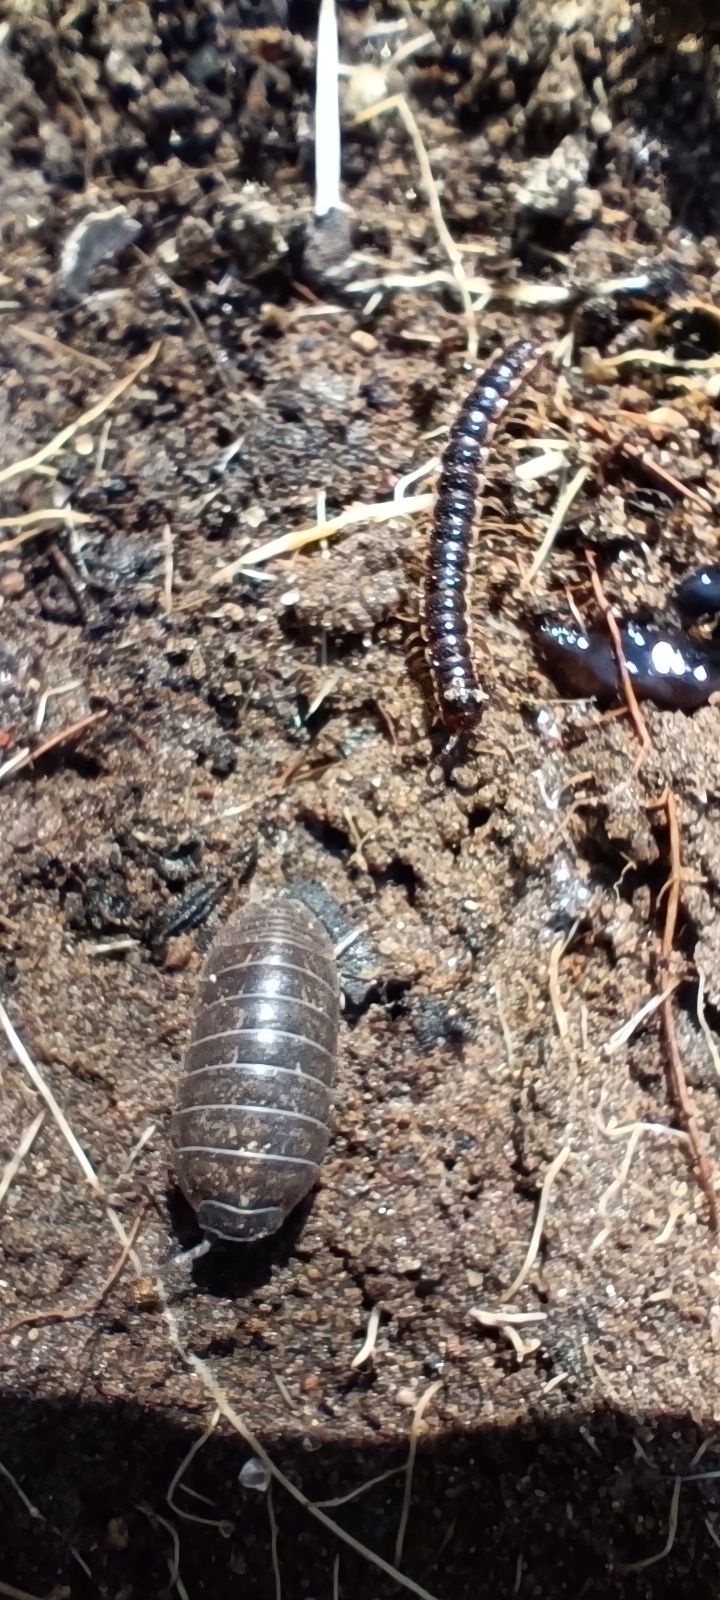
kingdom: Animalia
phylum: Arthropoda
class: Malacostraca
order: Isopoda
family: Armadillidiidae
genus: Armadillidium
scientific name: Armadillidium vulgare
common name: Common pill woodlouse
